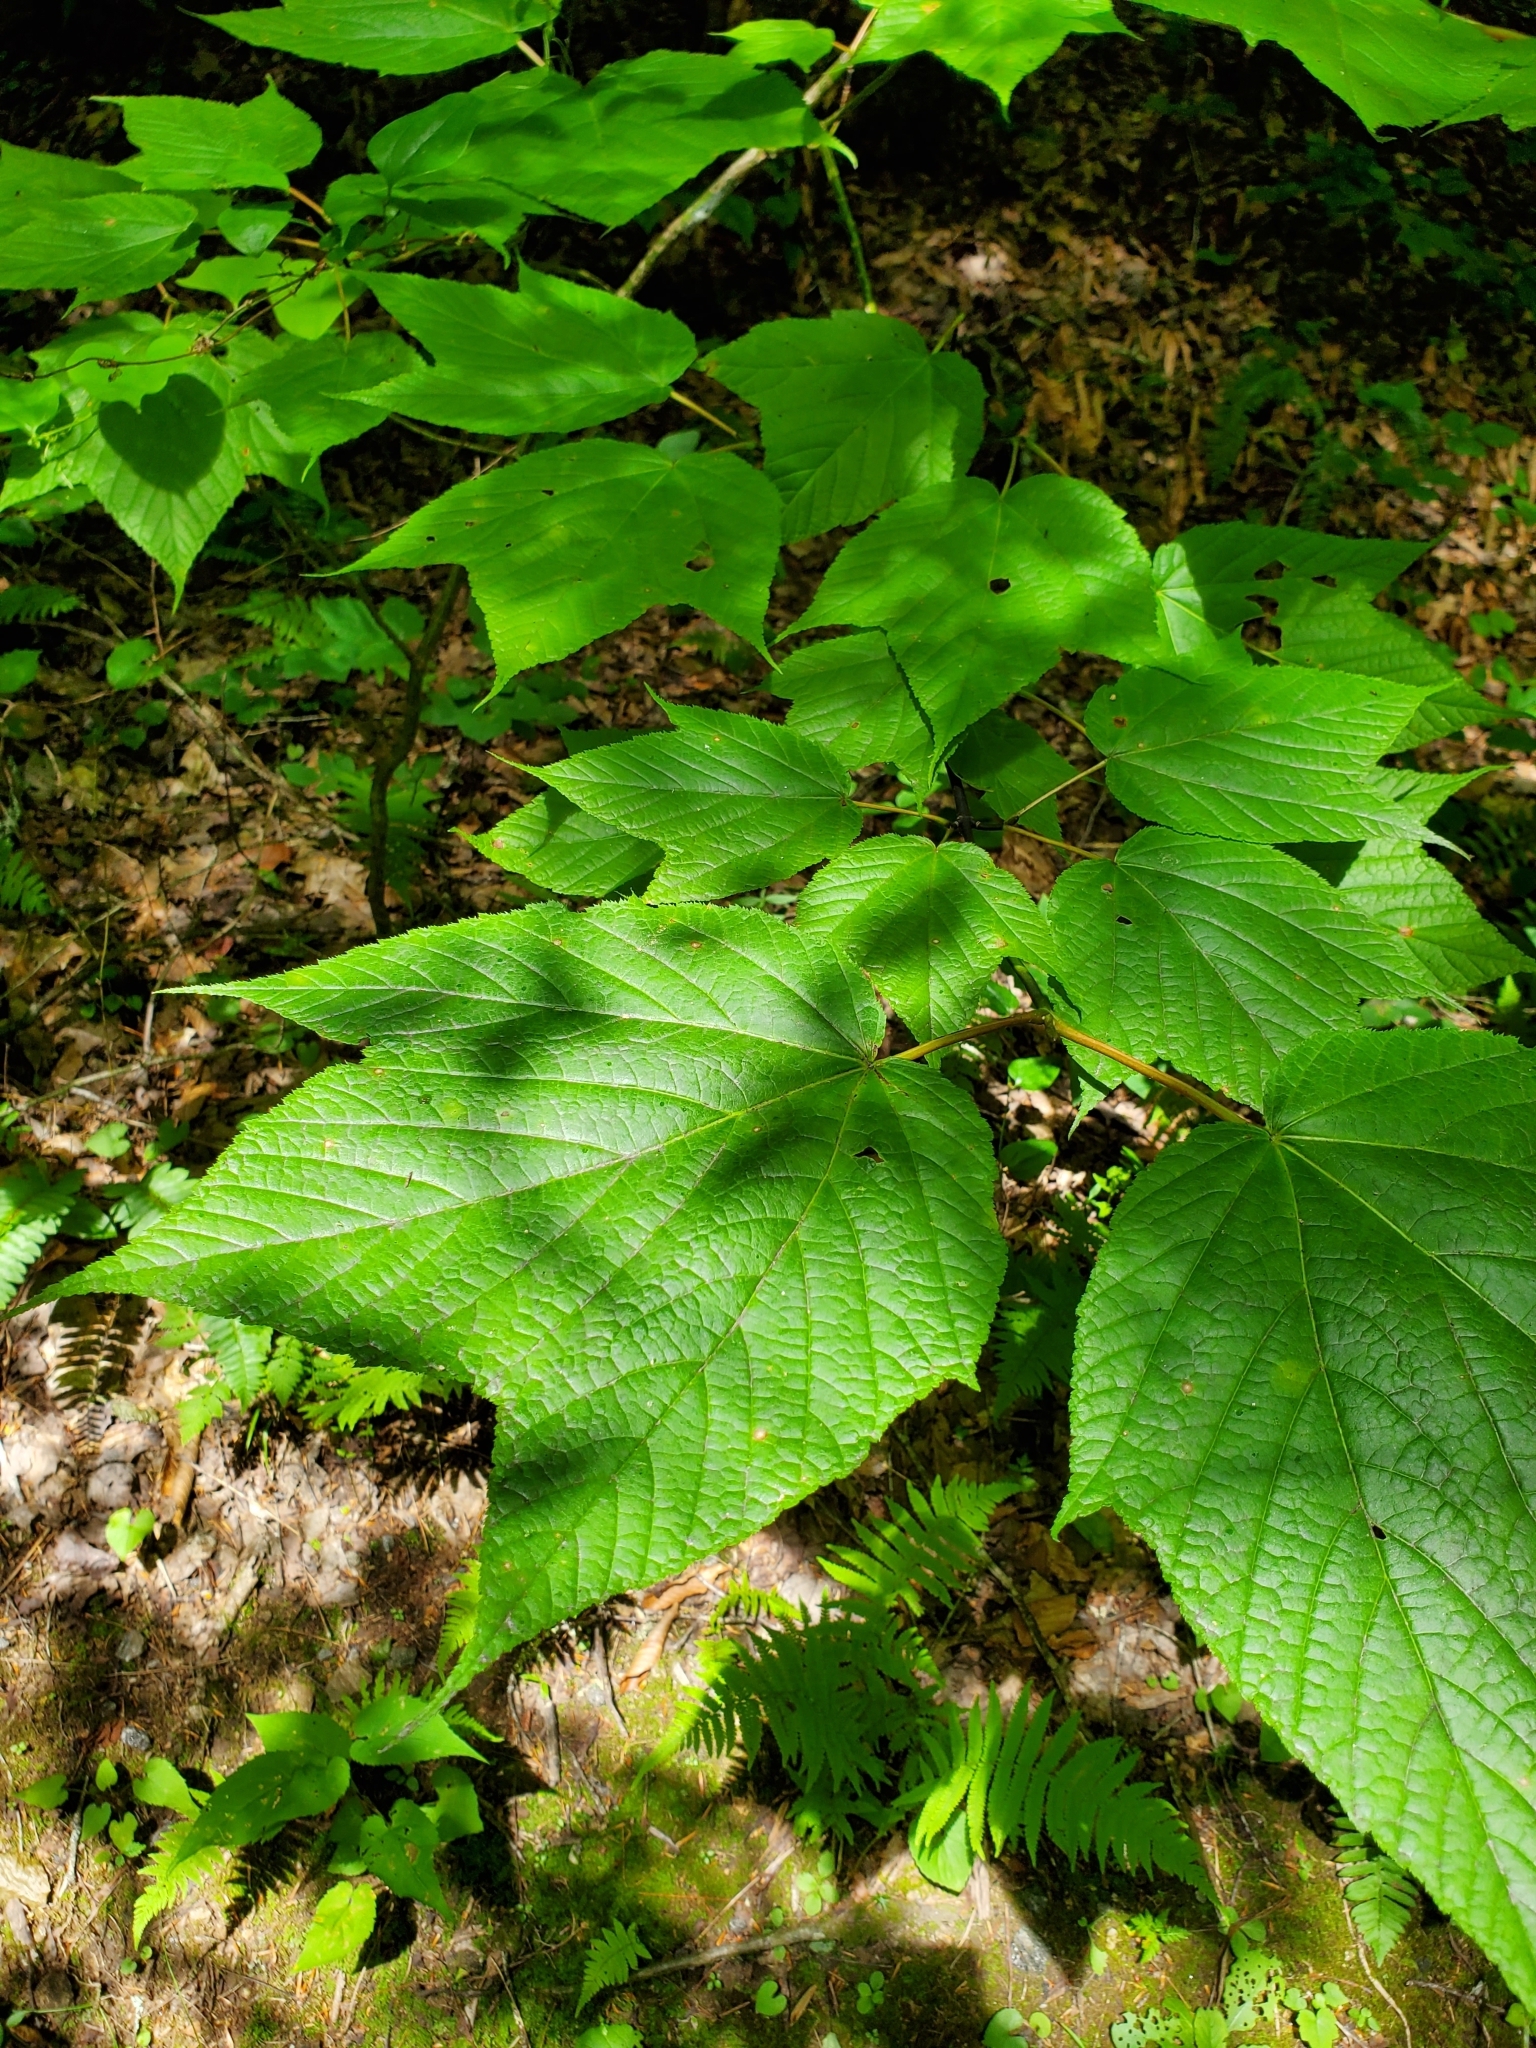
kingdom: Plantae
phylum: Tracheophyta
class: Magnoliopsida
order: Sapindales
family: Sapindaceae
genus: Acer
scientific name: Acer pensylvanicum
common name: Moosewood
